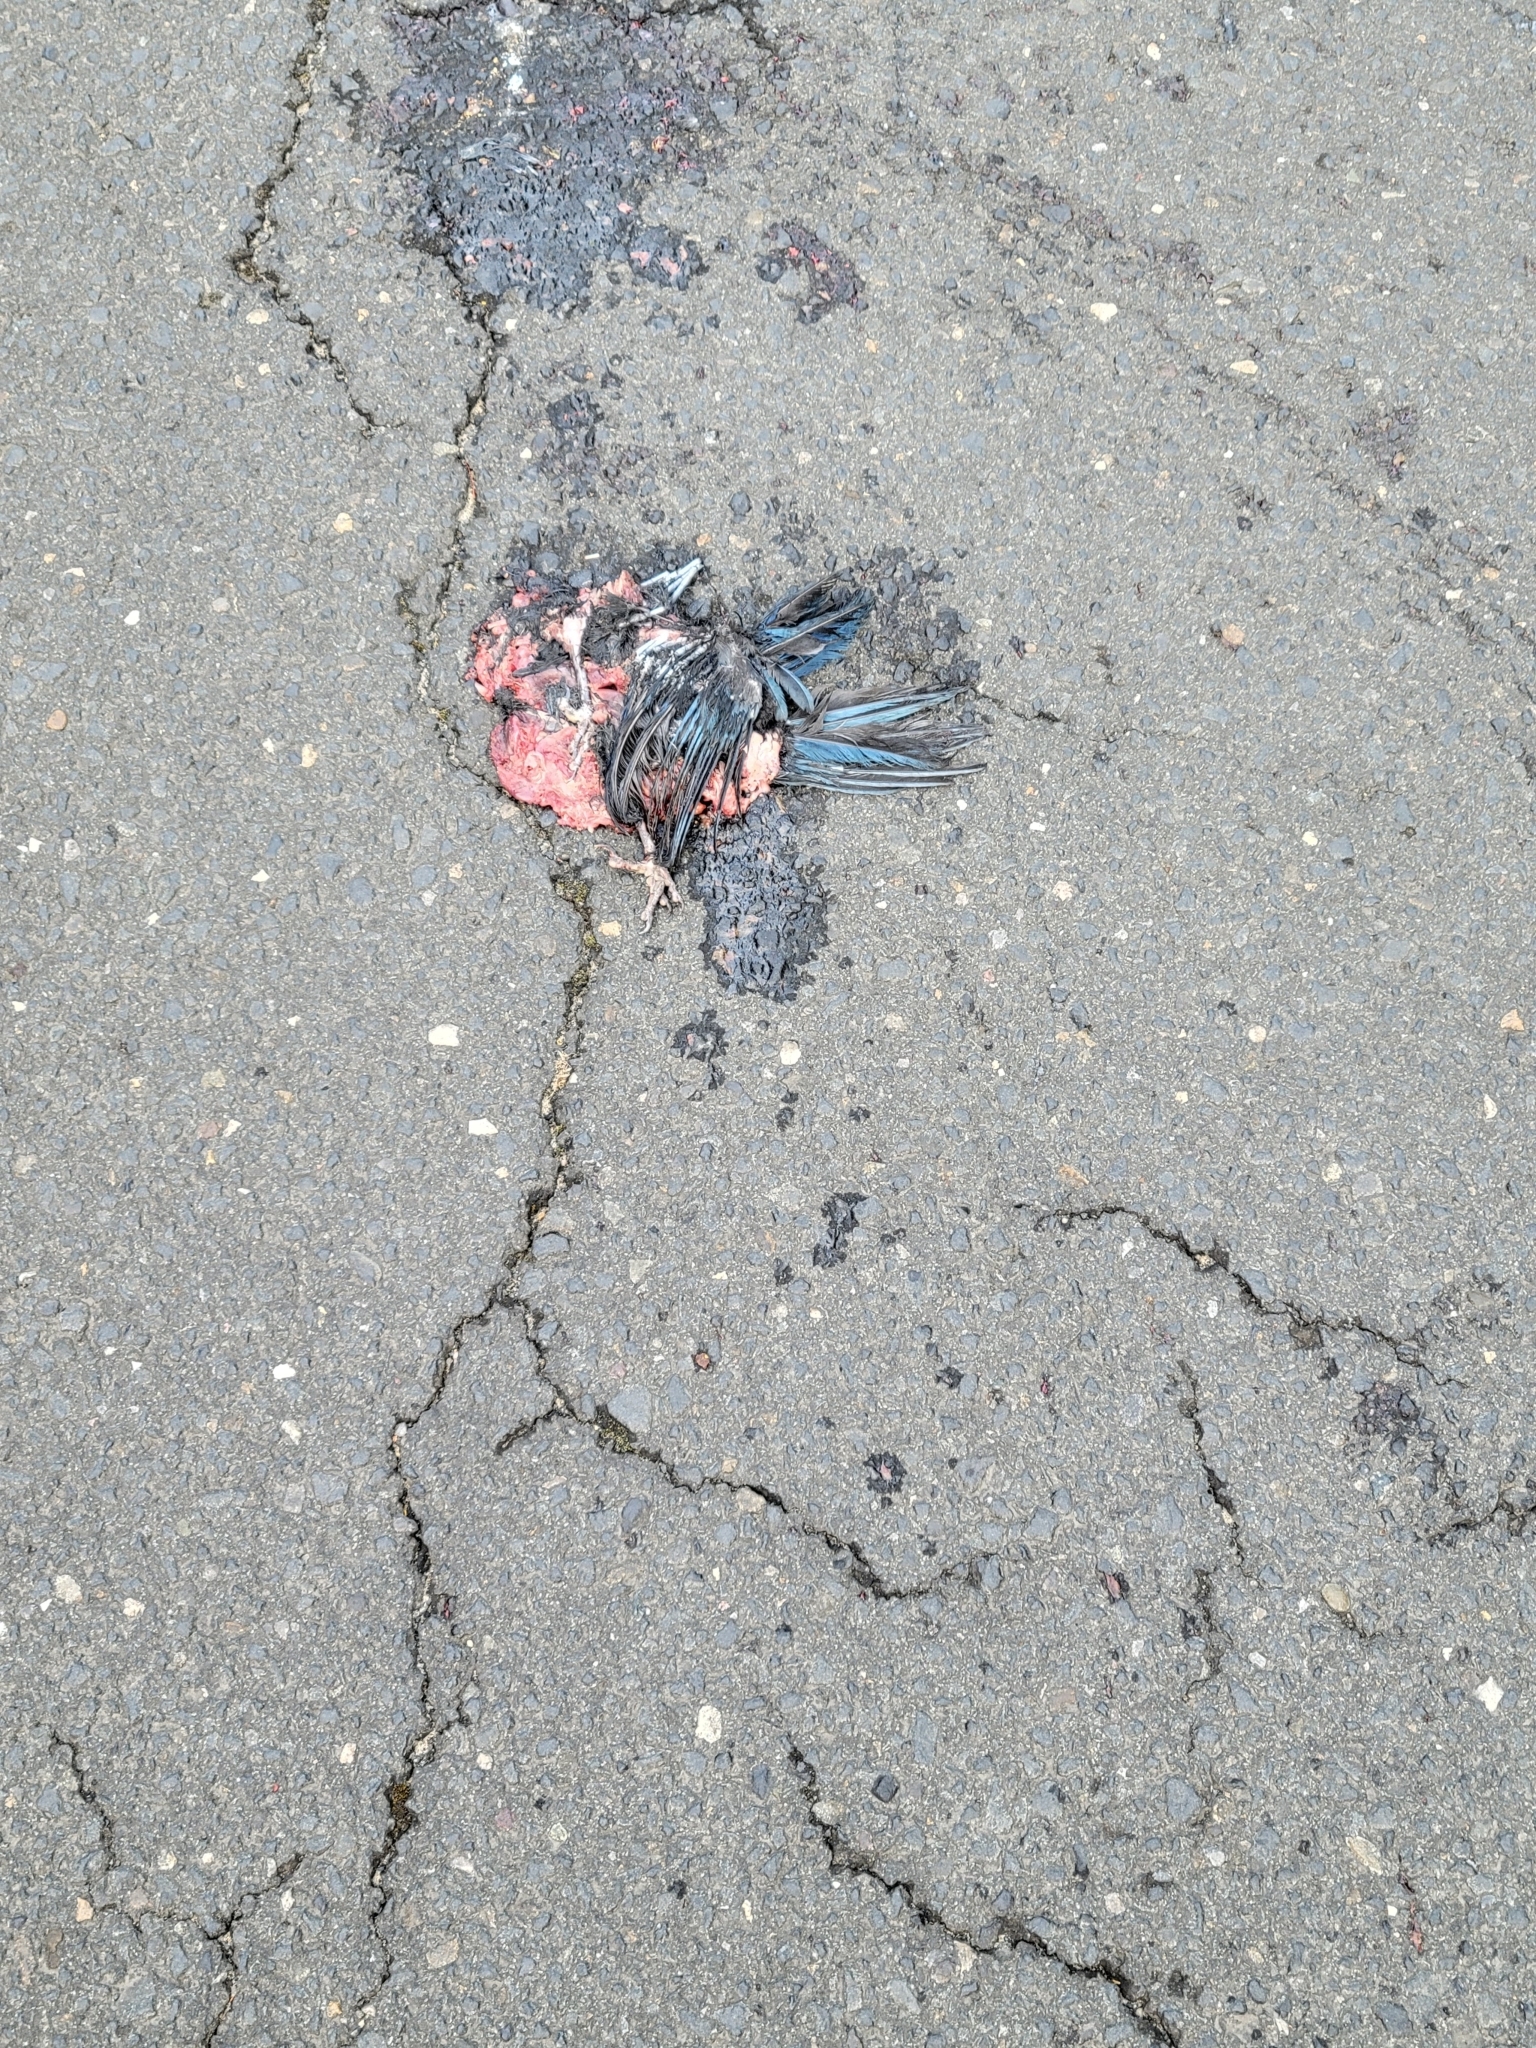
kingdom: Animalia
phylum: Chordata
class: Aves
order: Passeriformes
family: Corvidae
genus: Cyanocitta
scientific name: Cyanocitta stelleri
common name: Steller's jay
